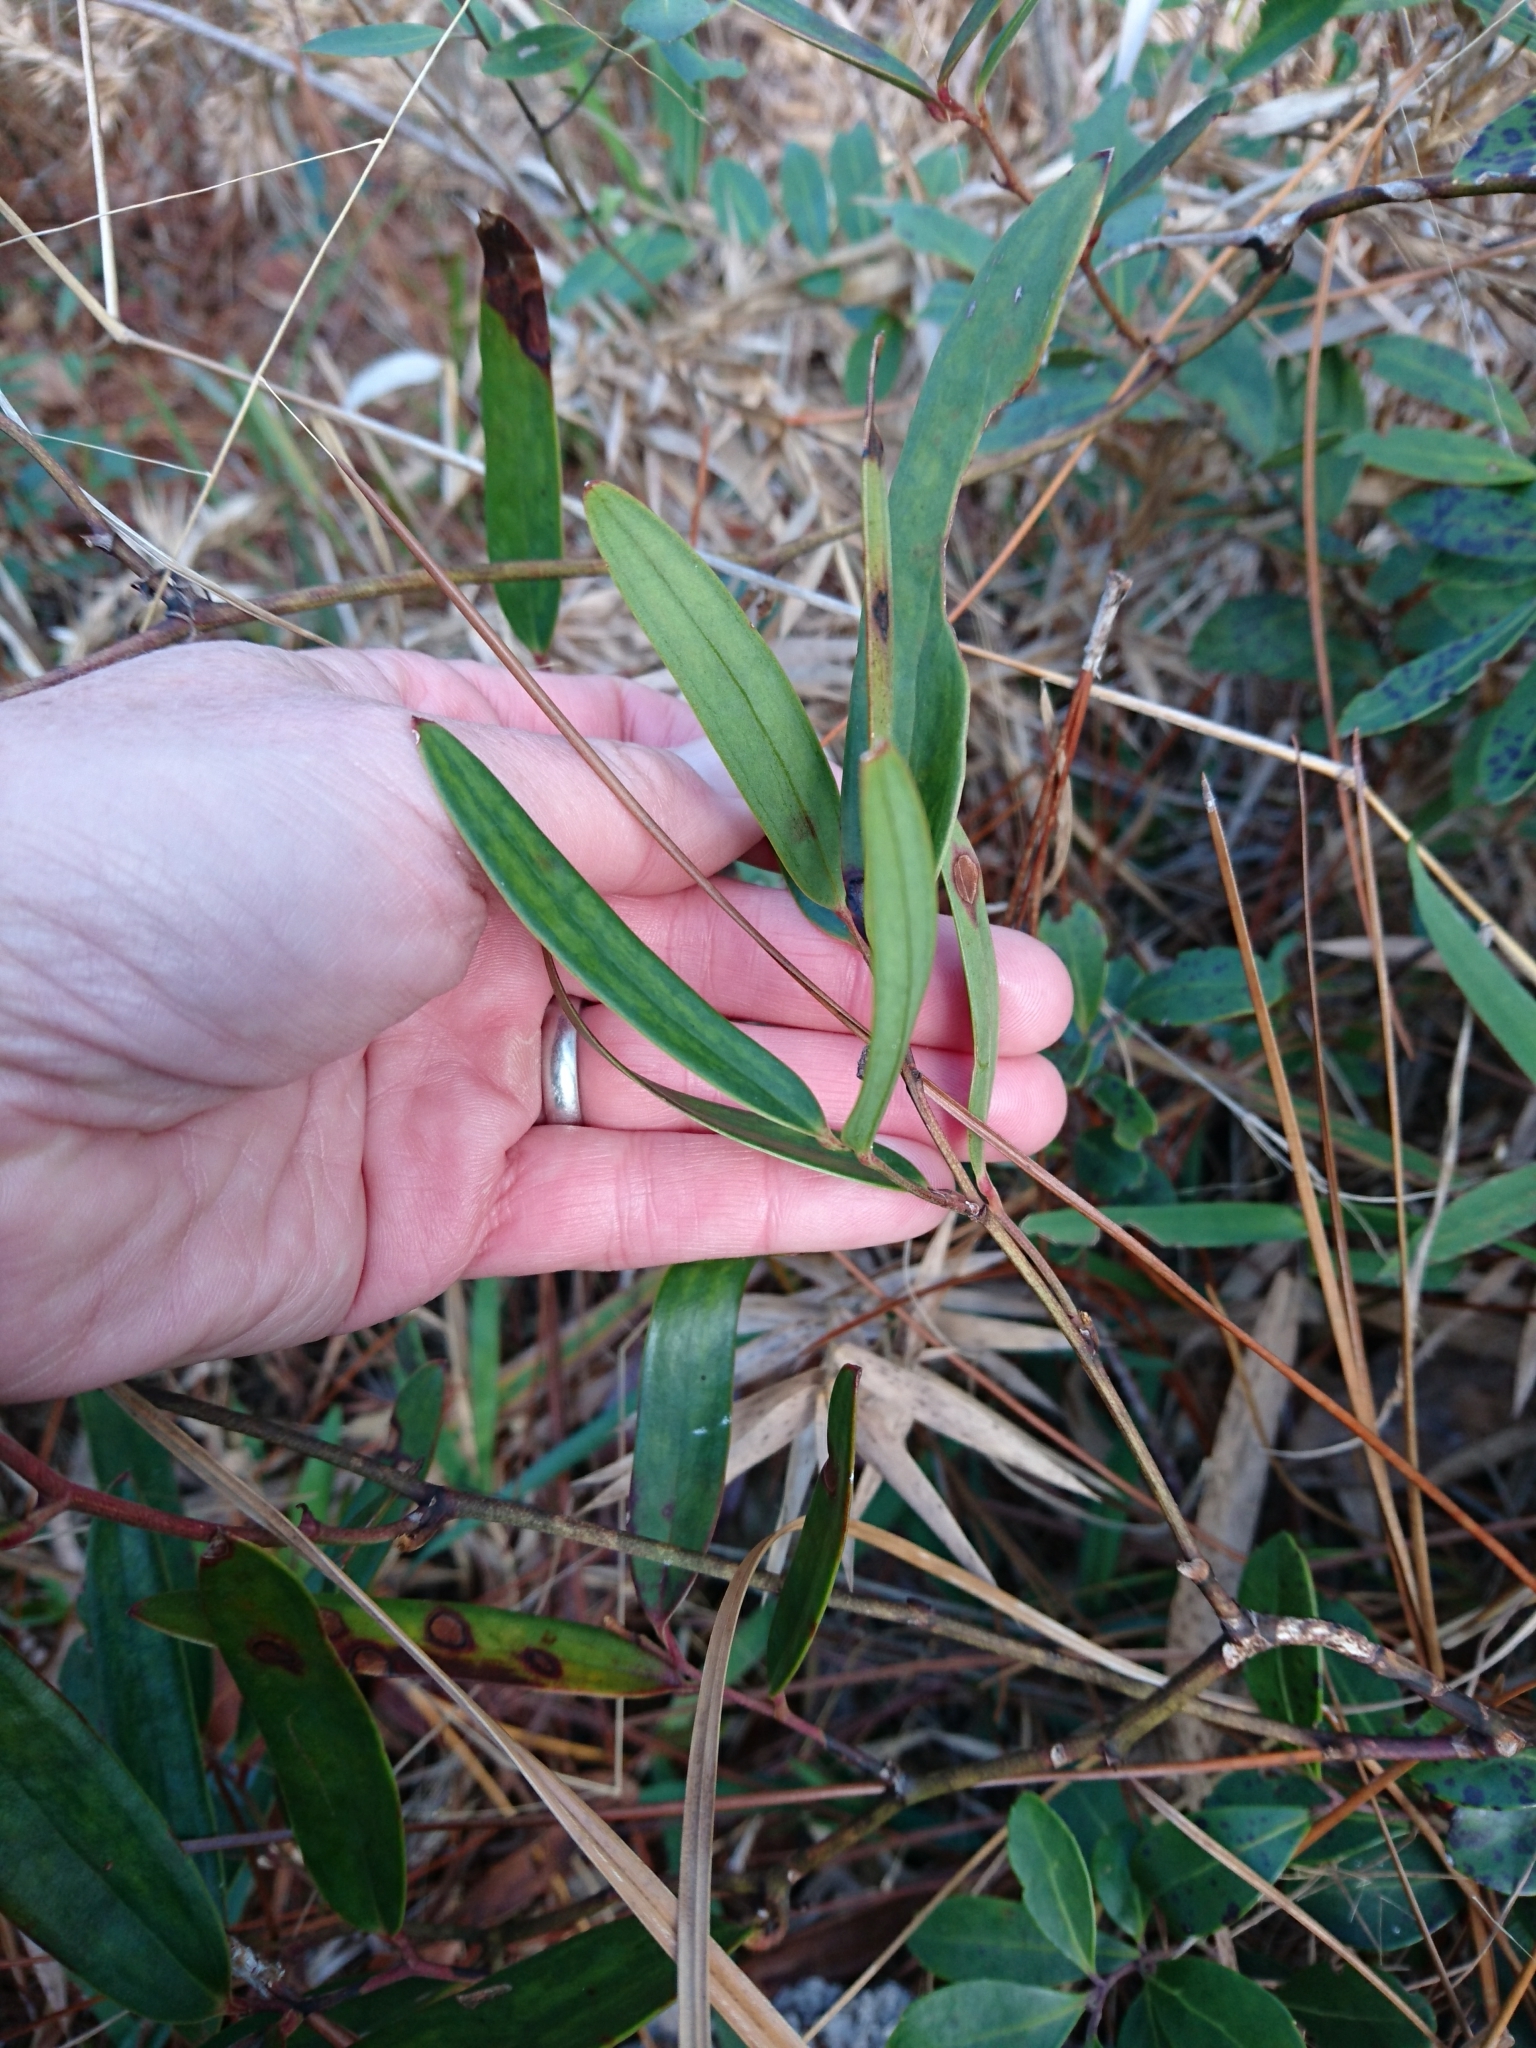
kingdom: Plantae
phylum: Tracheophyta
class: Liliopsida
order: Liliales
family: Smilacaceae
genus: Smilax
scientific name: Smilax laurifolia
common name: Bamboovine
